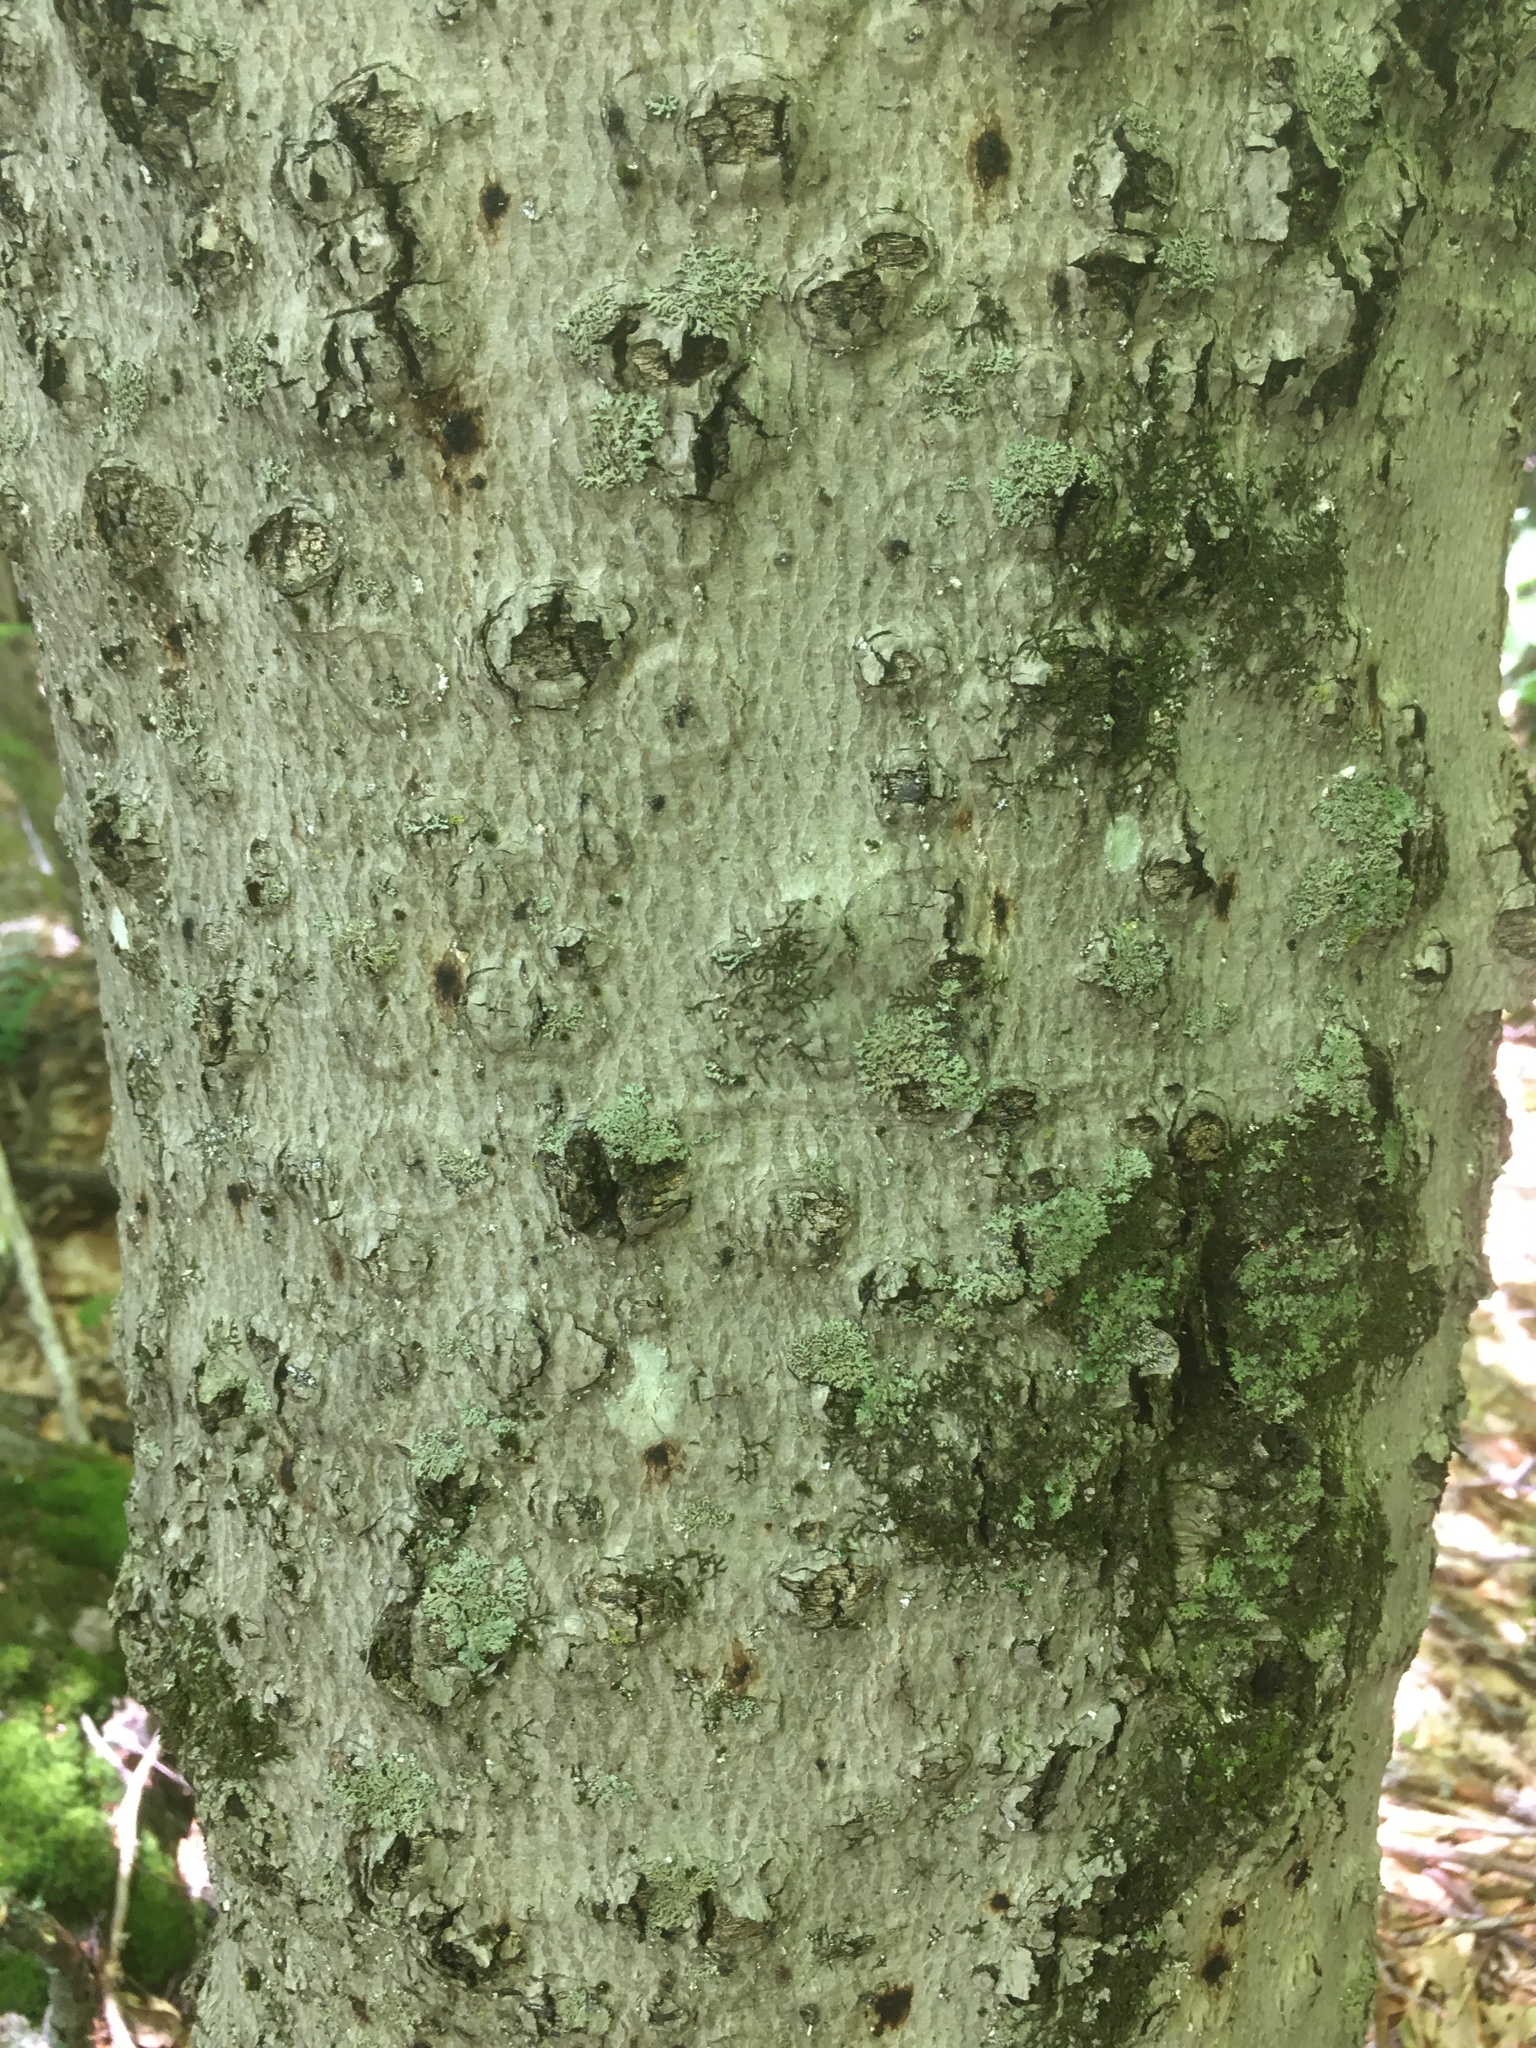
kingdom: Animalia
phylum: Arthropoda
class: Insecta
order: Hemiptera
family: Eriococcidae
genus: Cryptococcus
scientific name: Cryptococcus fagisuga
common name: Beech scale
